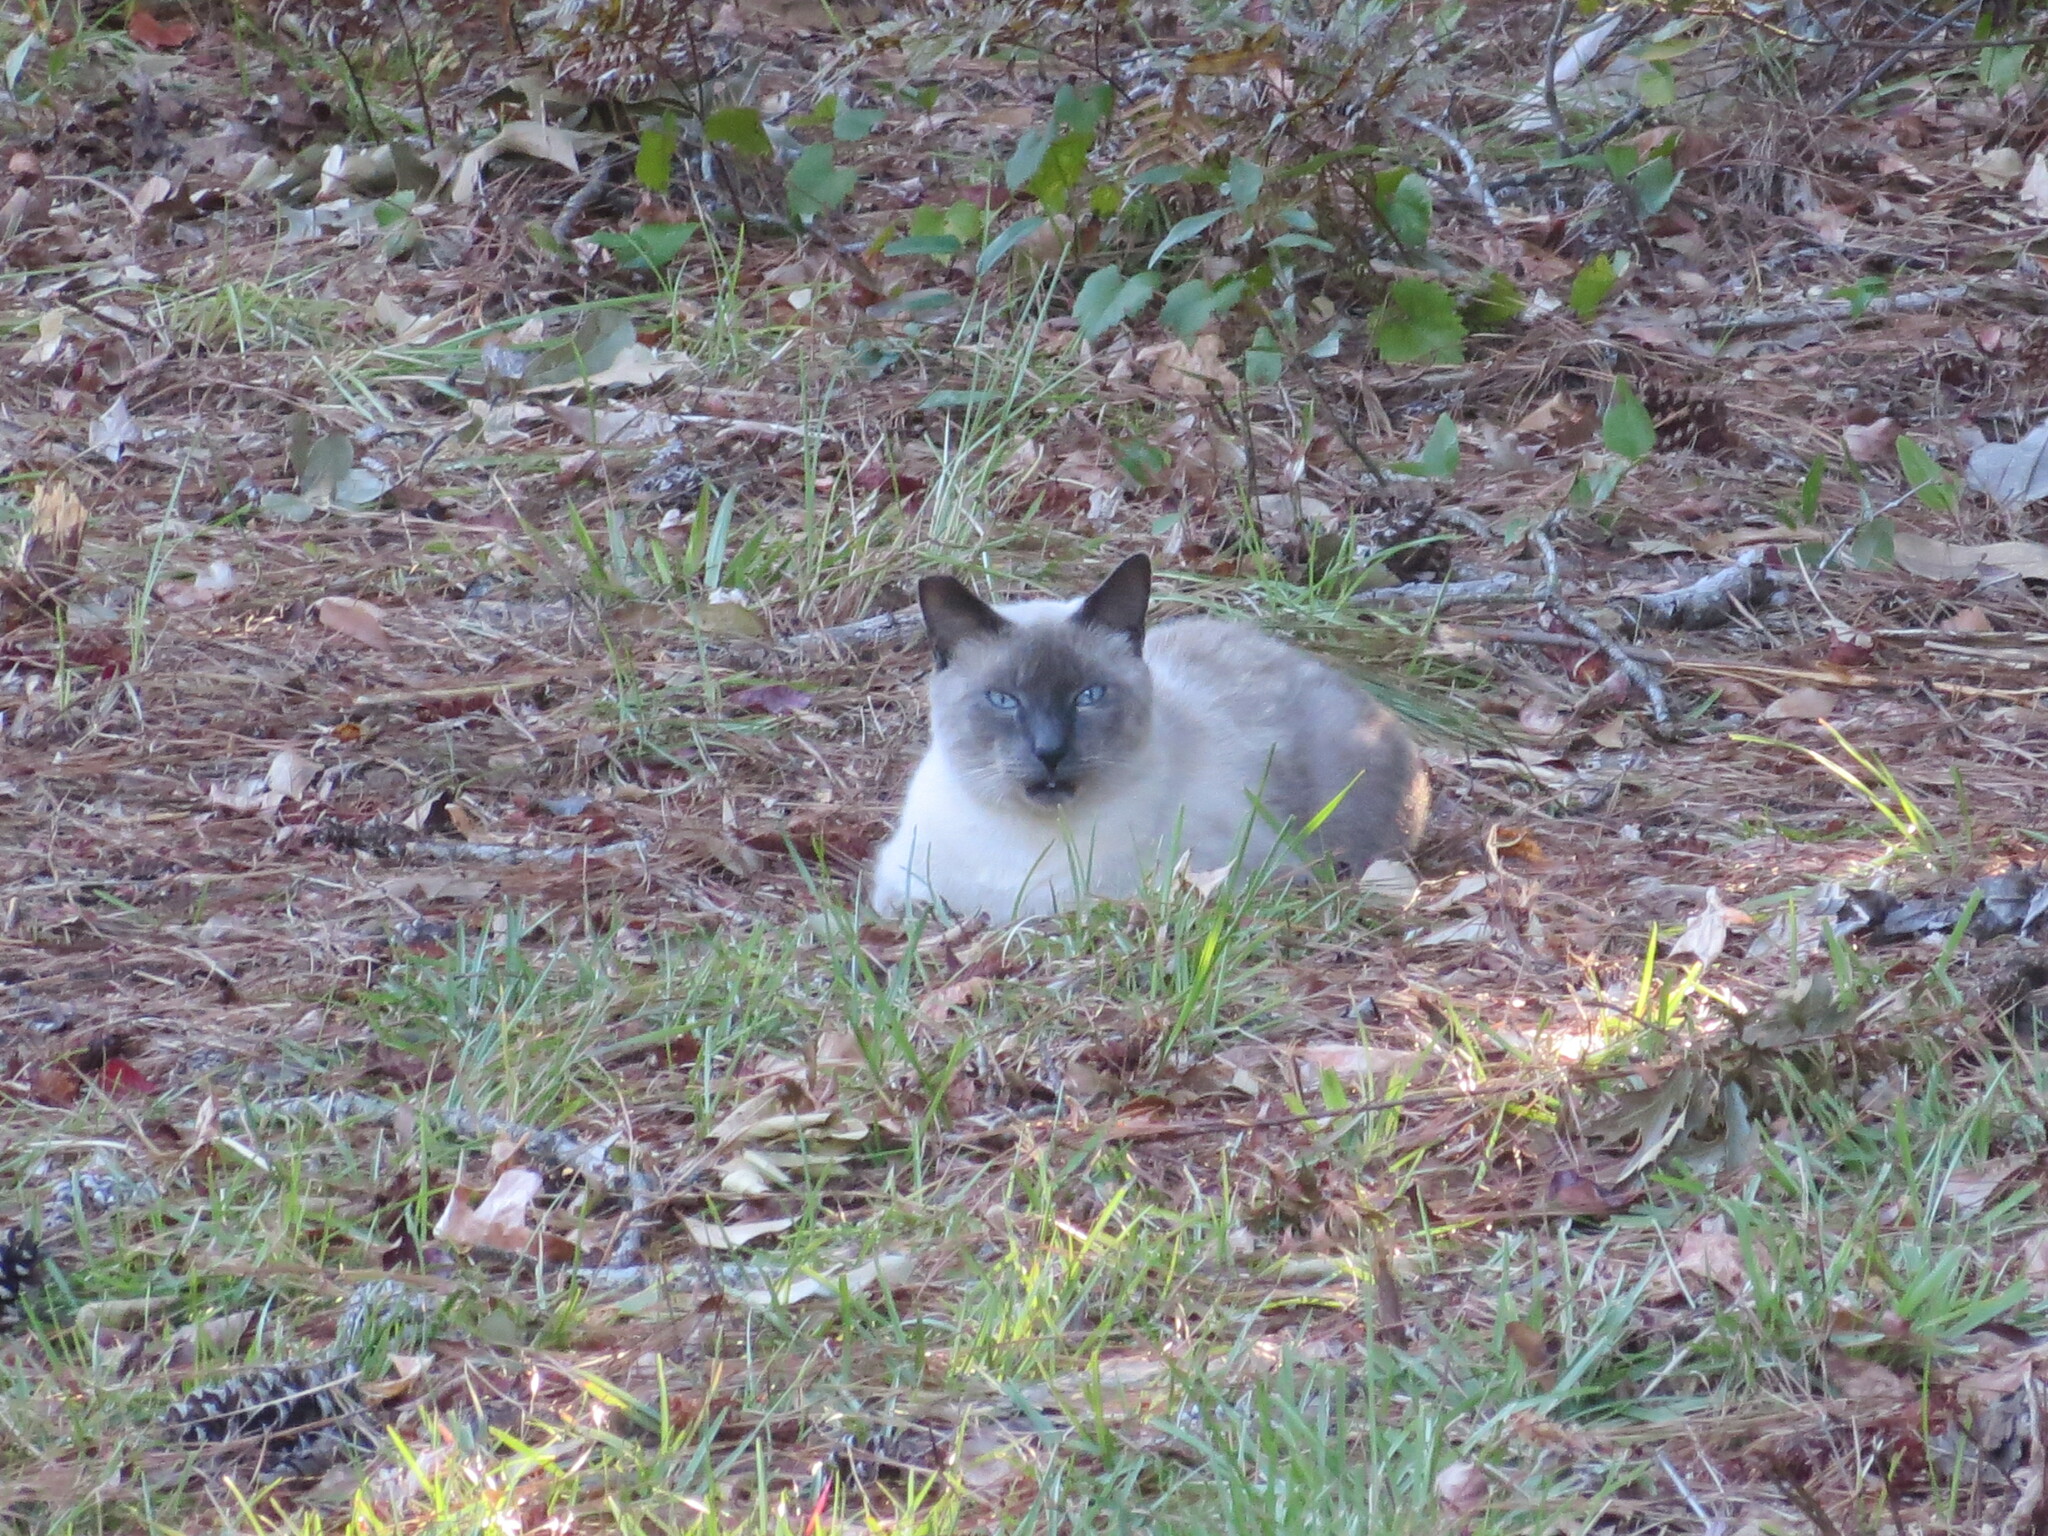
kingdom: Animalia
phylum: Chordata
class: Mammalia
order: Carnivora
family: Felidae
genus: Felis
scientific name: Felis catus
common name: Domestic cat
